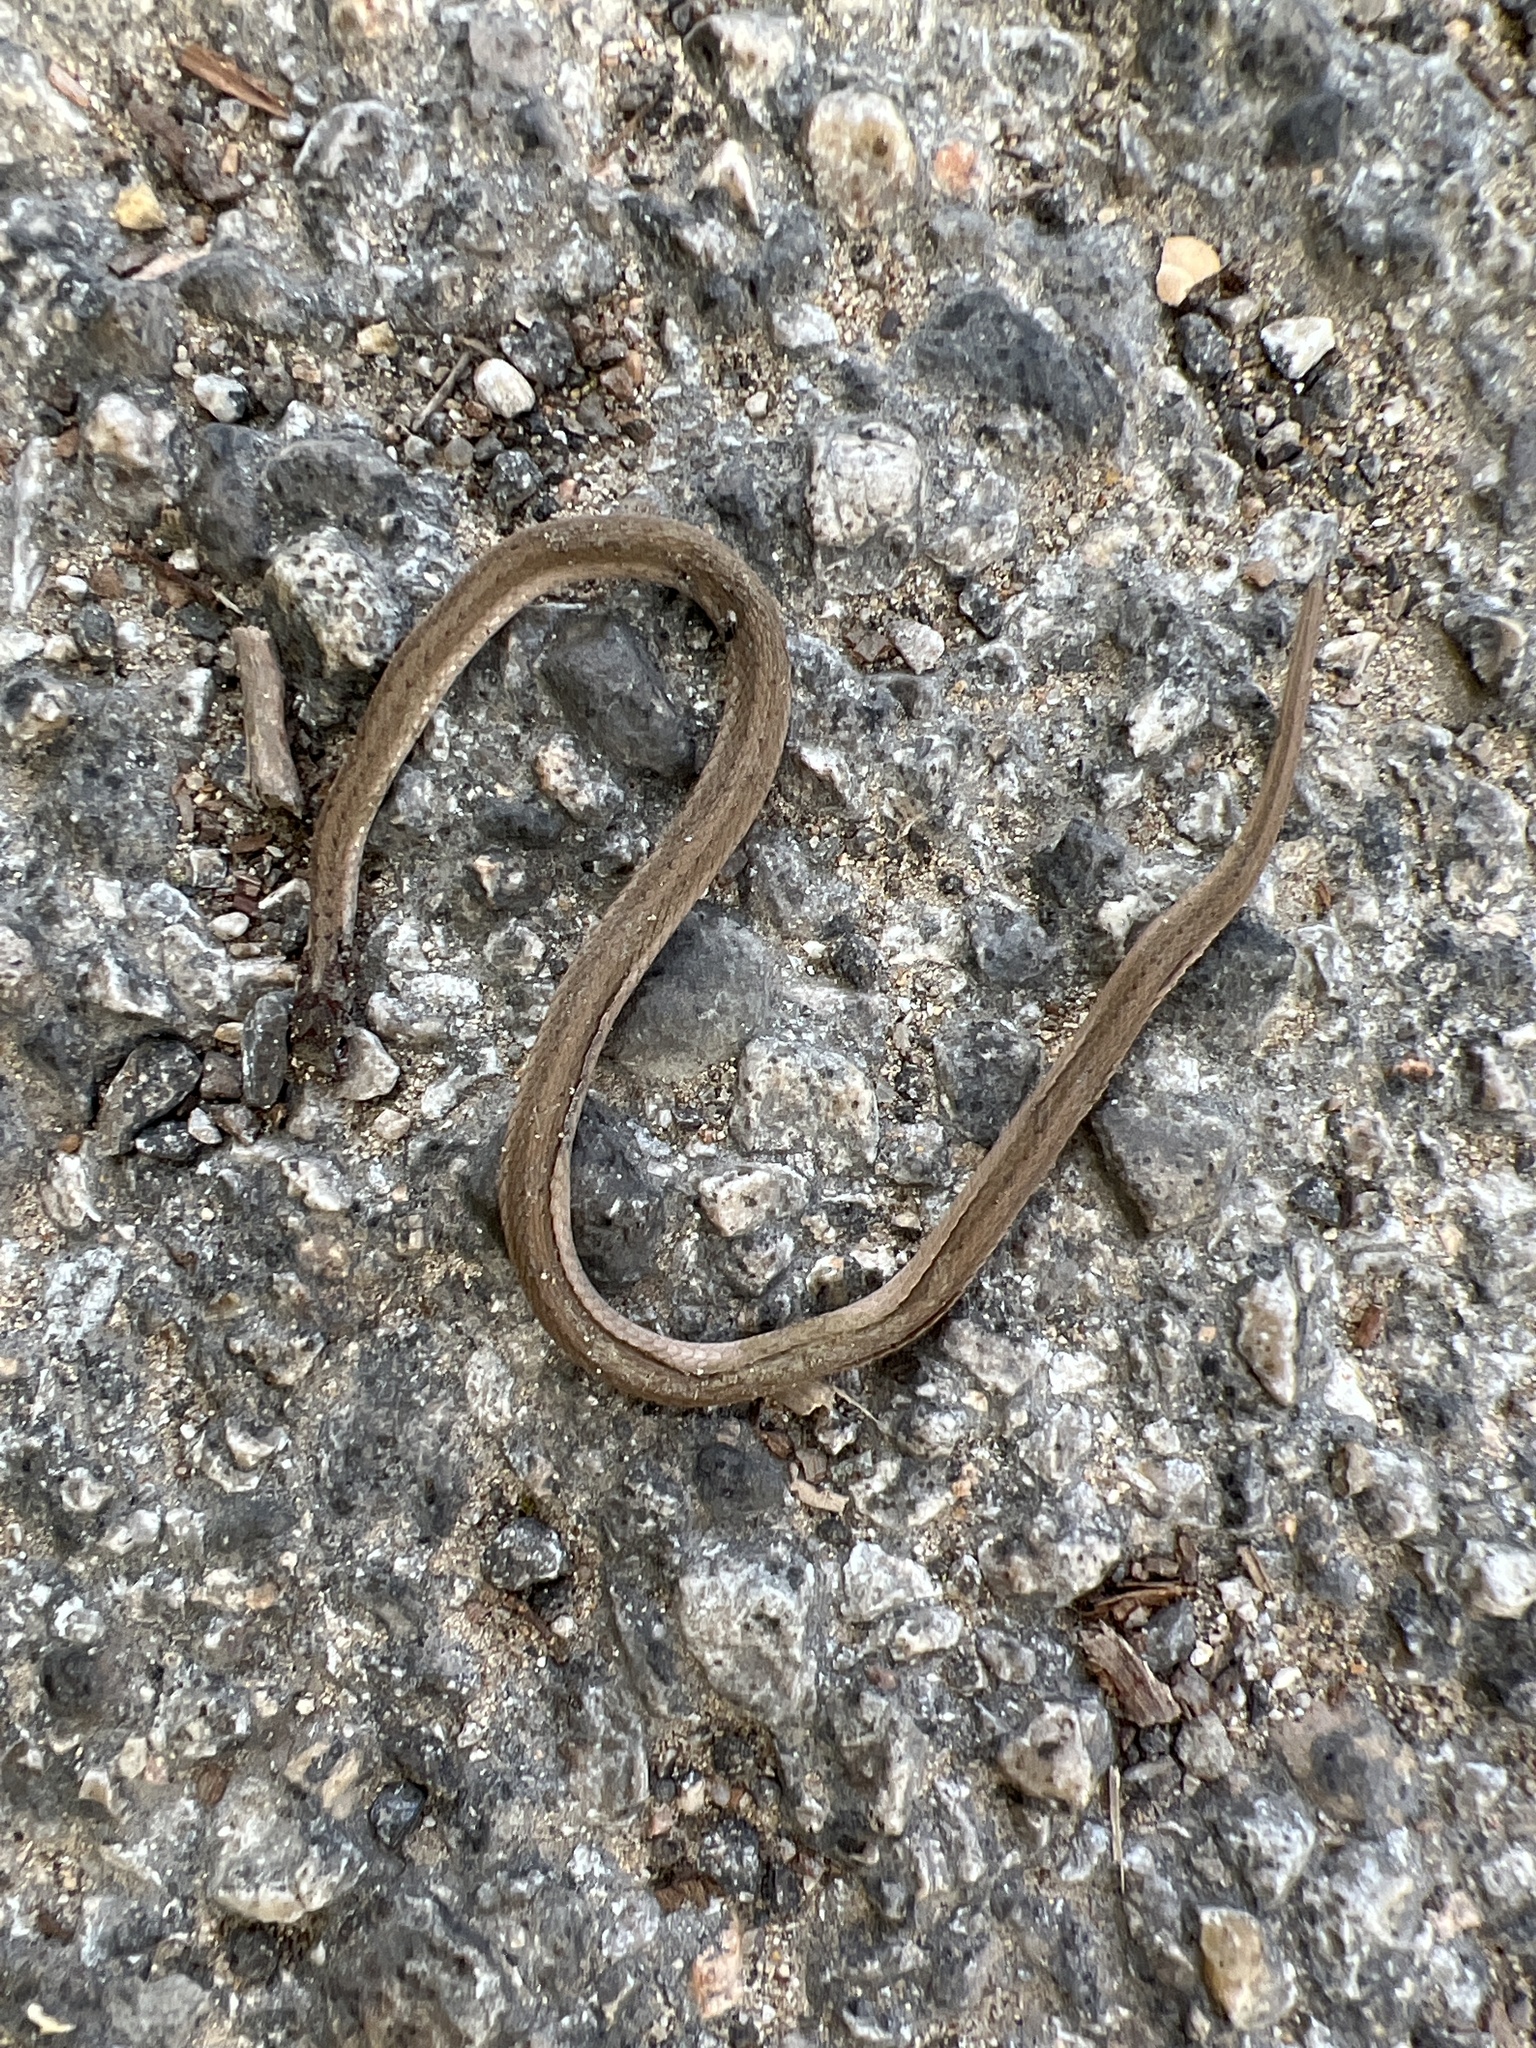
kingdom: Animalia
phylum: Chordata
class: Squamata
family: Colubridae
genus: Storeria
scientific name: Storeria dekayi
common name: (dekay’s) brown snake
